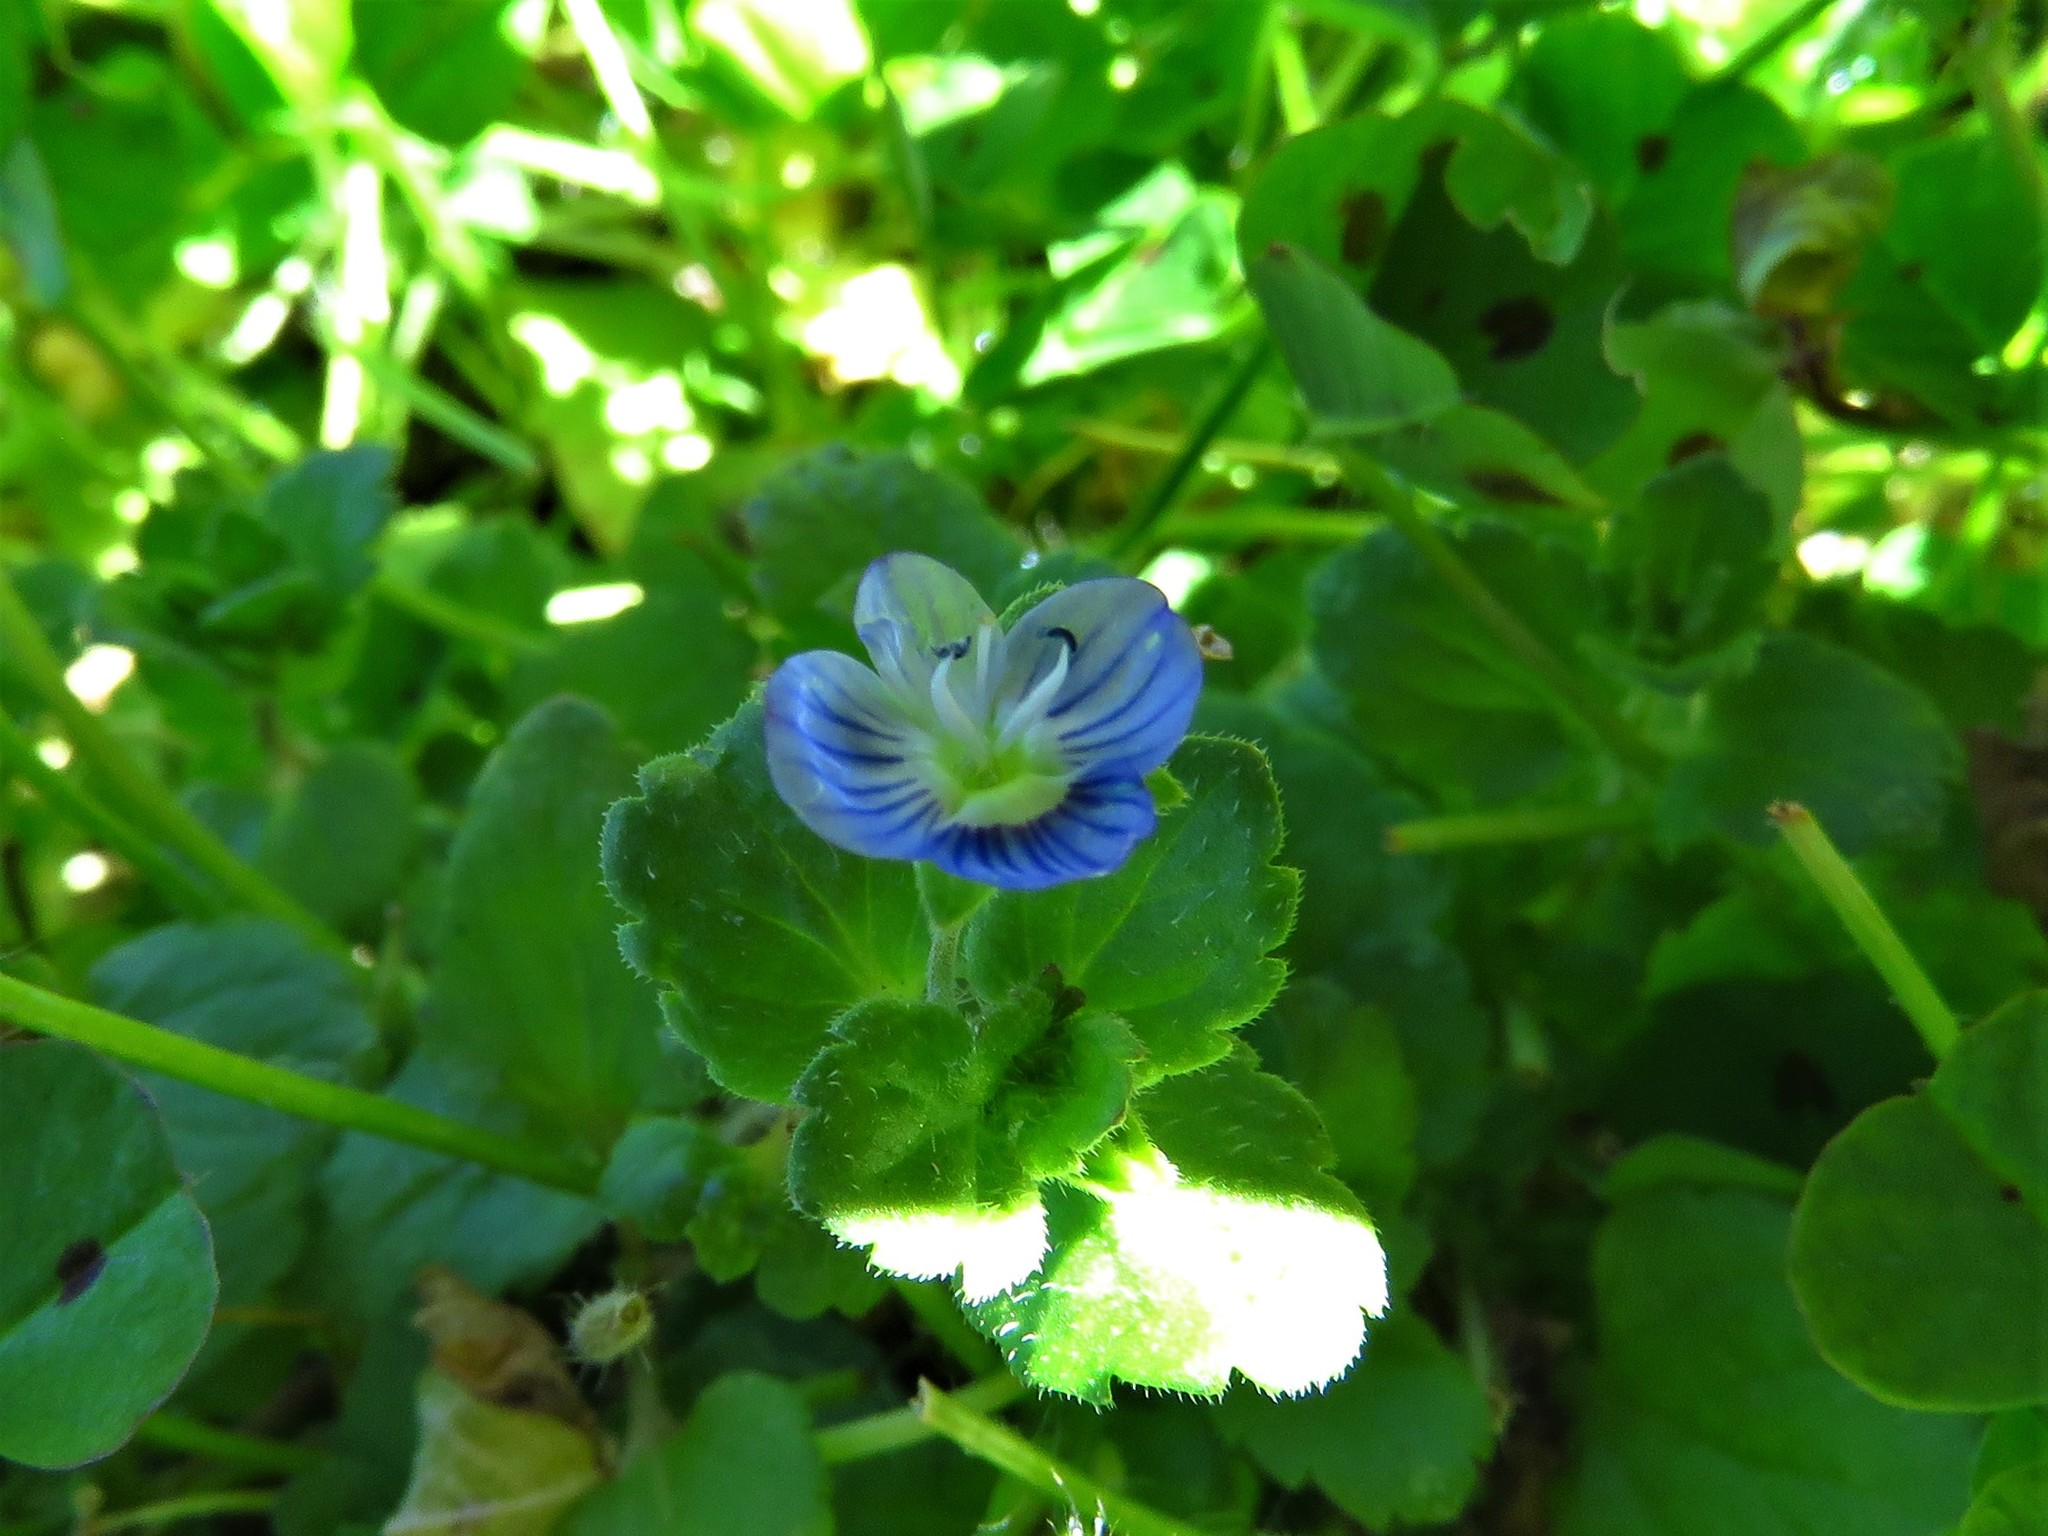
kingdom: Plantae
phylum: Tracheophyta
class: Magnoliopsida
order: Lamiales
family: Plantaginaceae
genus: Veronica
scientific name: Veronica persica
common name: Common field-speedwell
